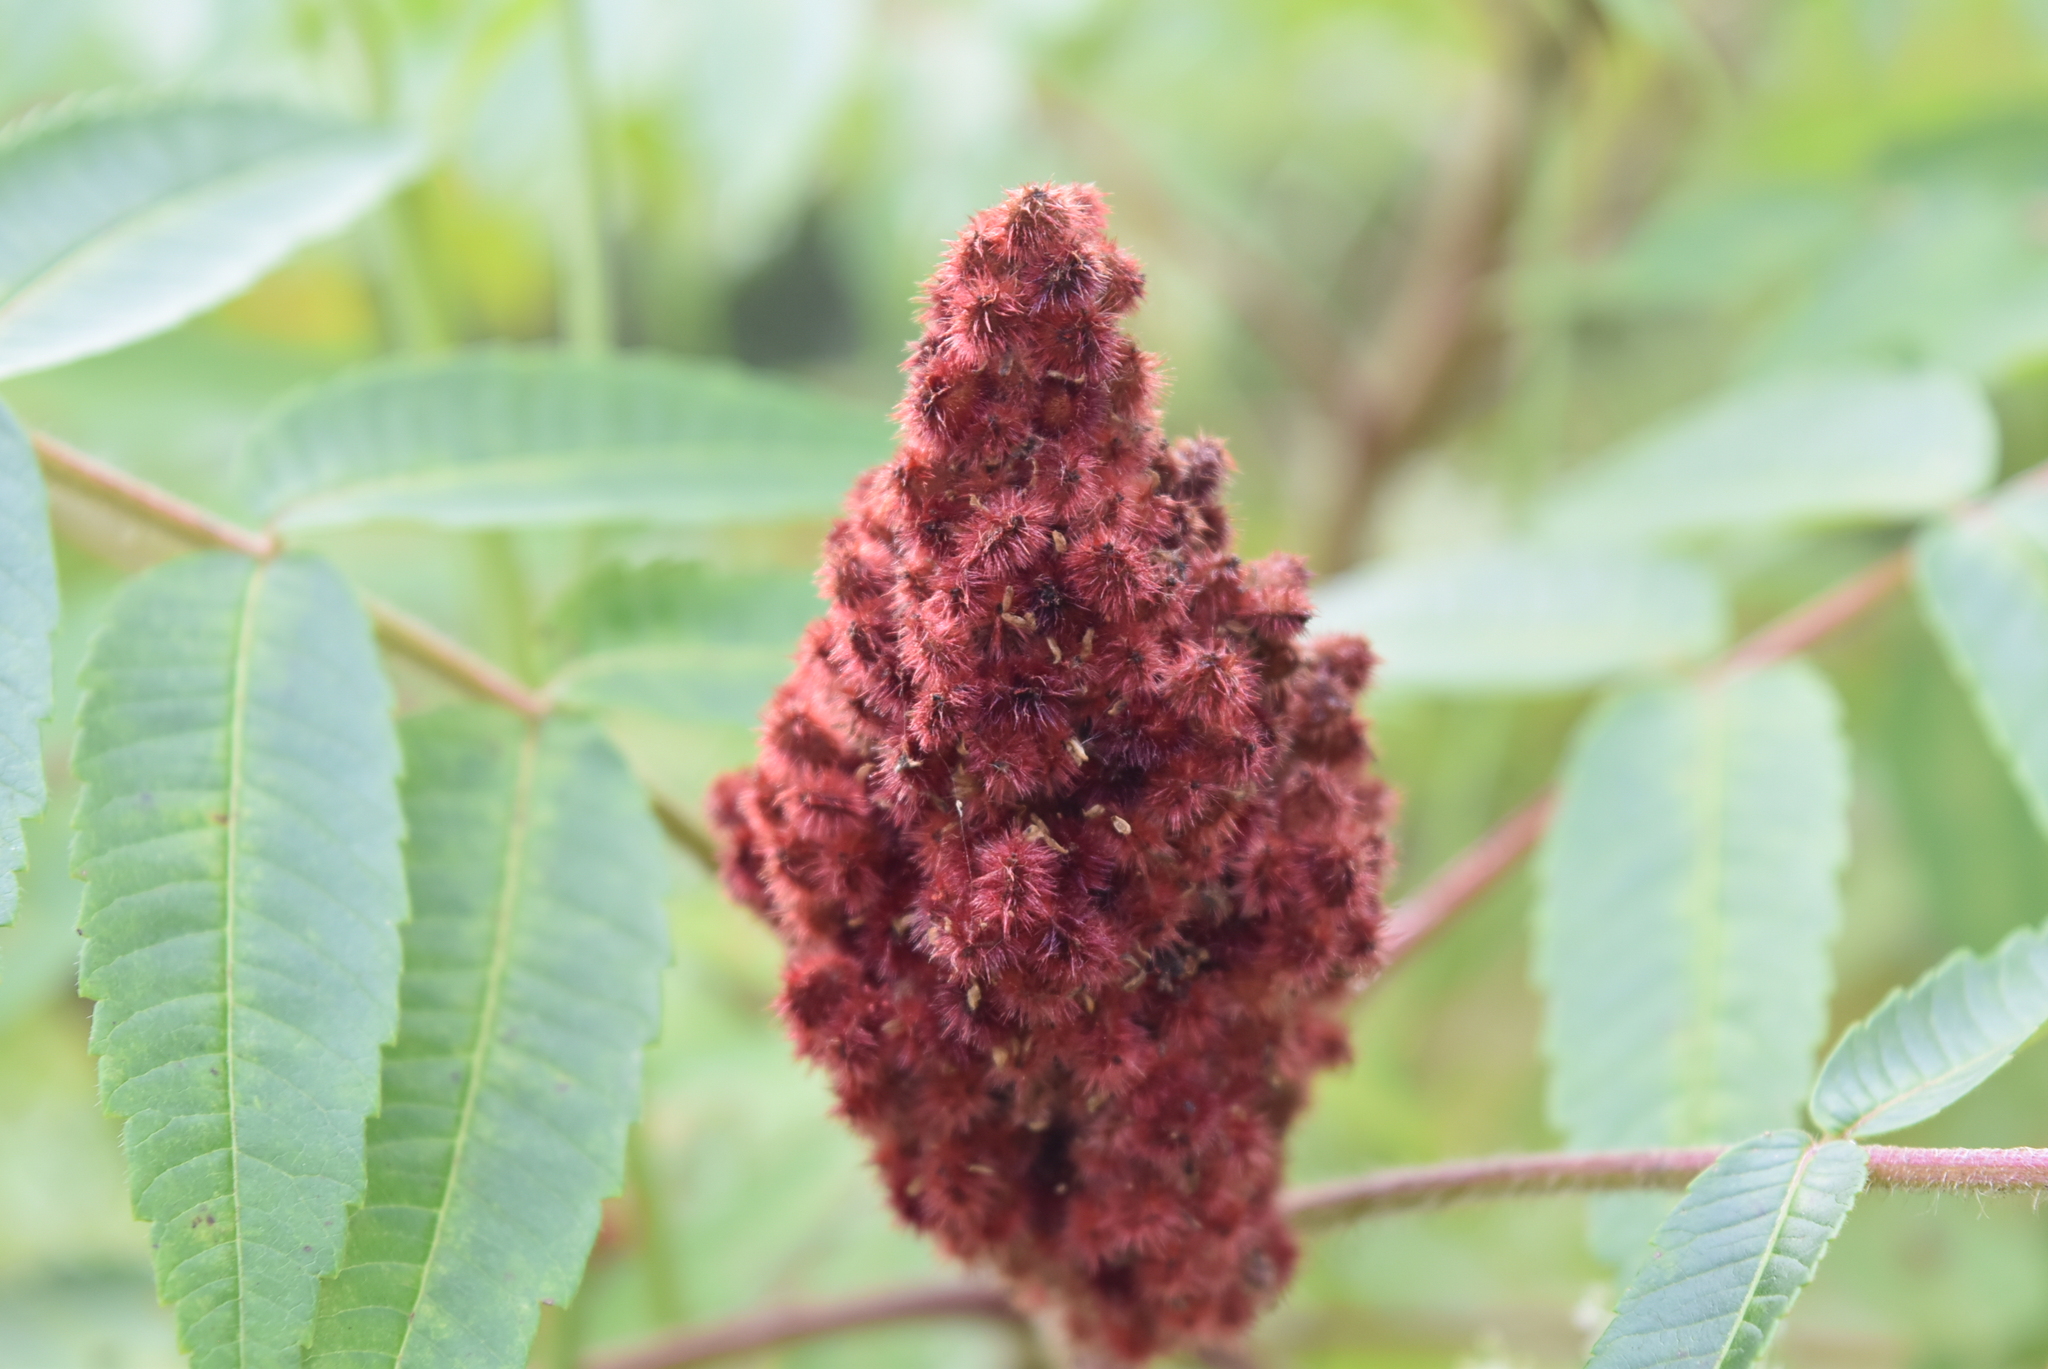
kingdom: Plantae
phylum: Tracheophyta
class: Magnoliopsida
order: Sapindales
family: Anacardiaceae
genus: Rhus
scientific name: Rhus typhina
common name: Staghorn sumac
